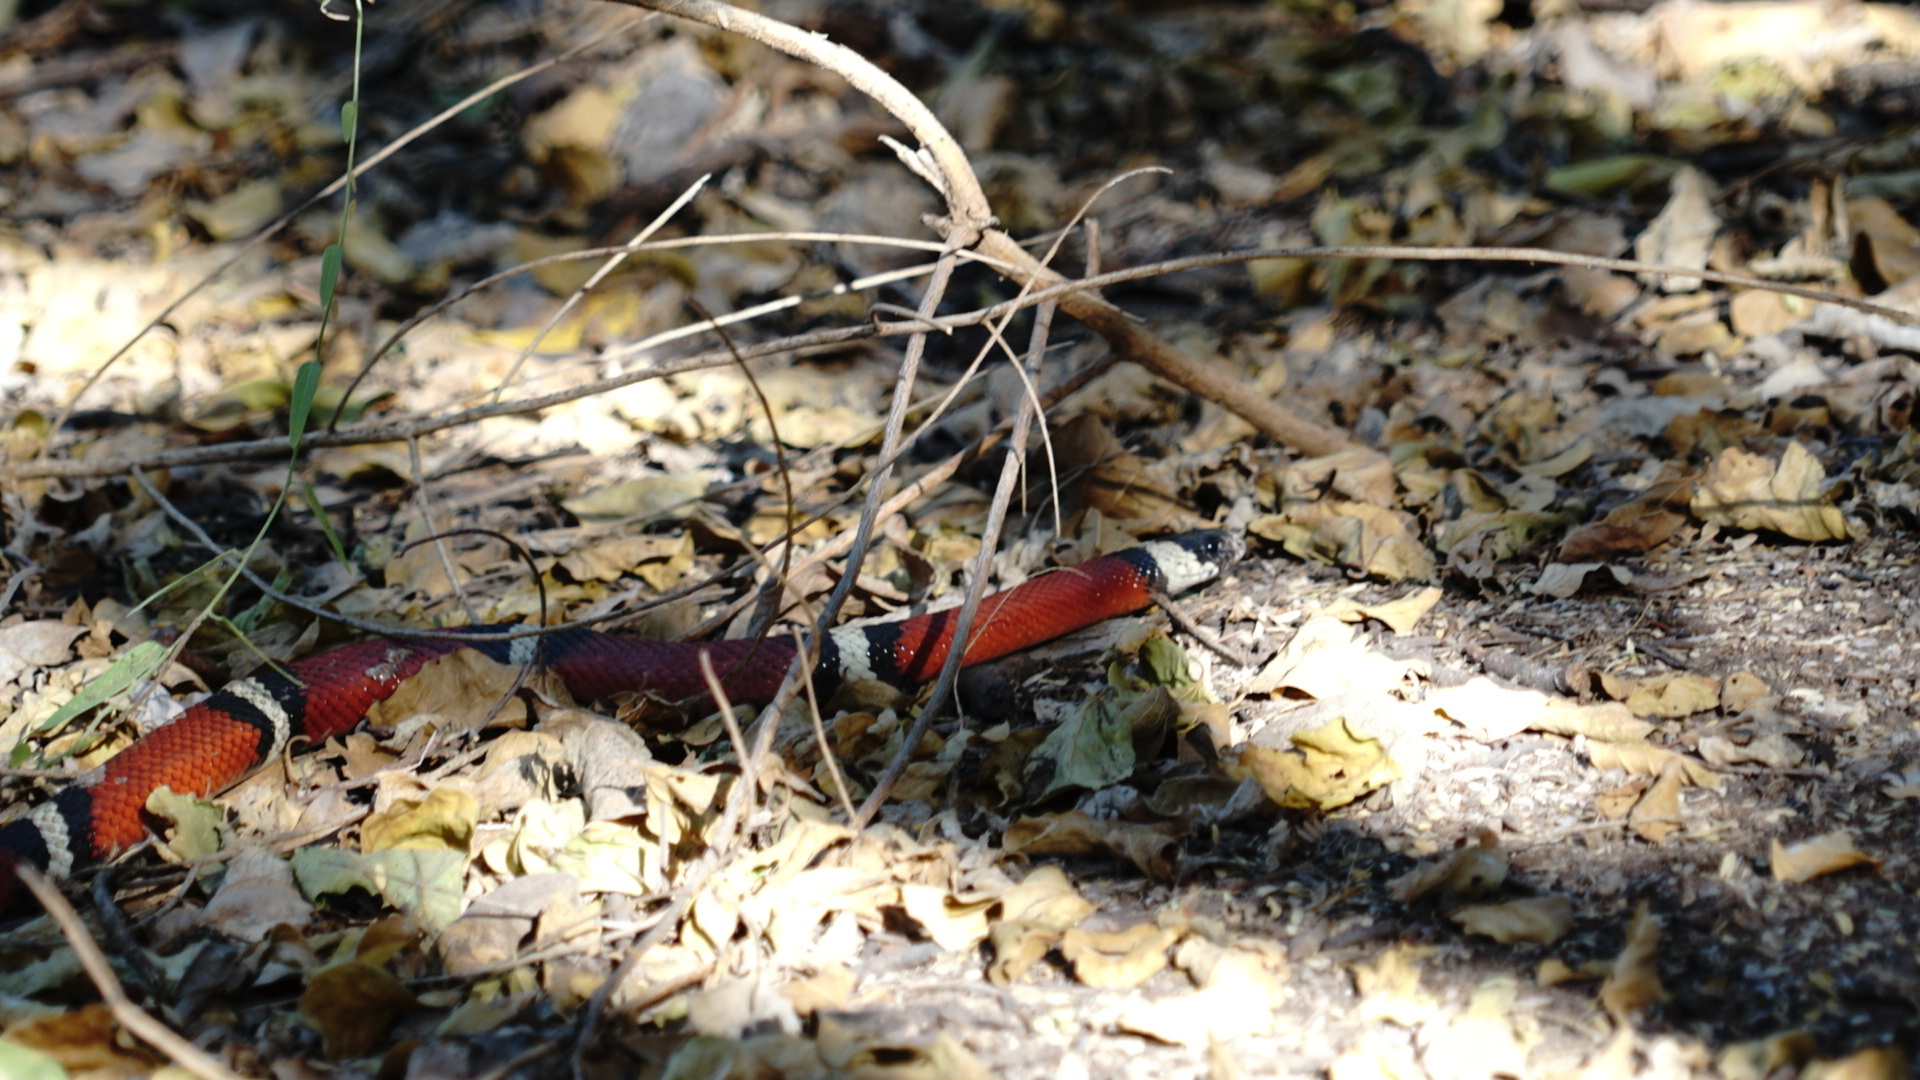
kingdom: Animalia
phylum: Chordata
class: Squamata
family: Colubridae
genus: Lampropeltis
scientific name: Lampropeltis polyzona
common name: Atlantic central american milksnake
